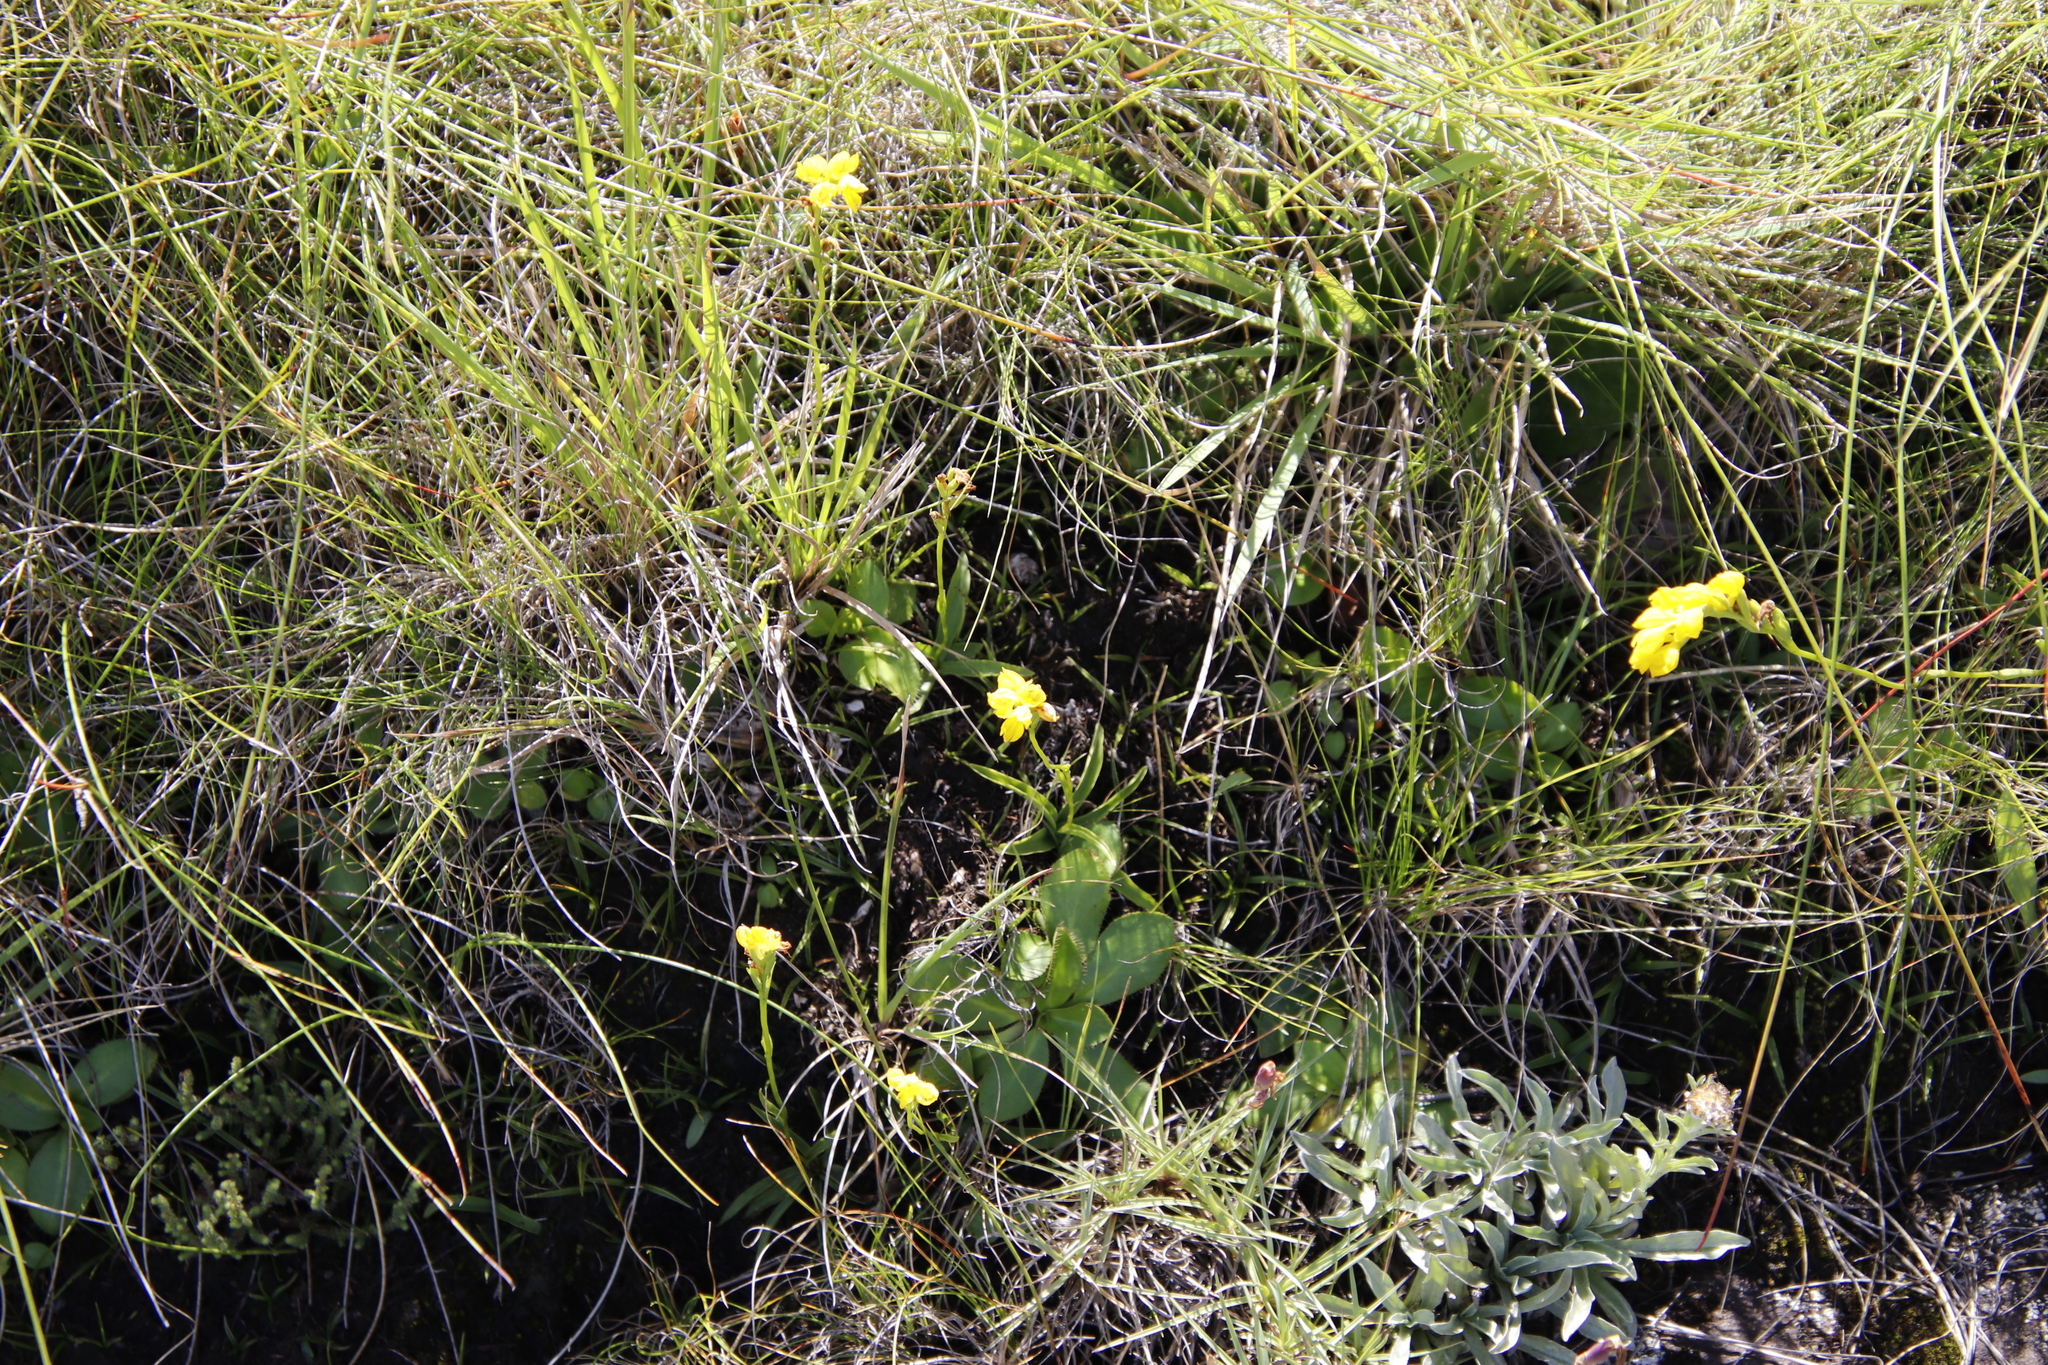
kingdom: Plantae
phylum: Tracheophyta
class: Liliopsida
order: Asparagales
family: Orchidaceae
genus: Schizochilus
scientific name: Schizochilus zeyheri
